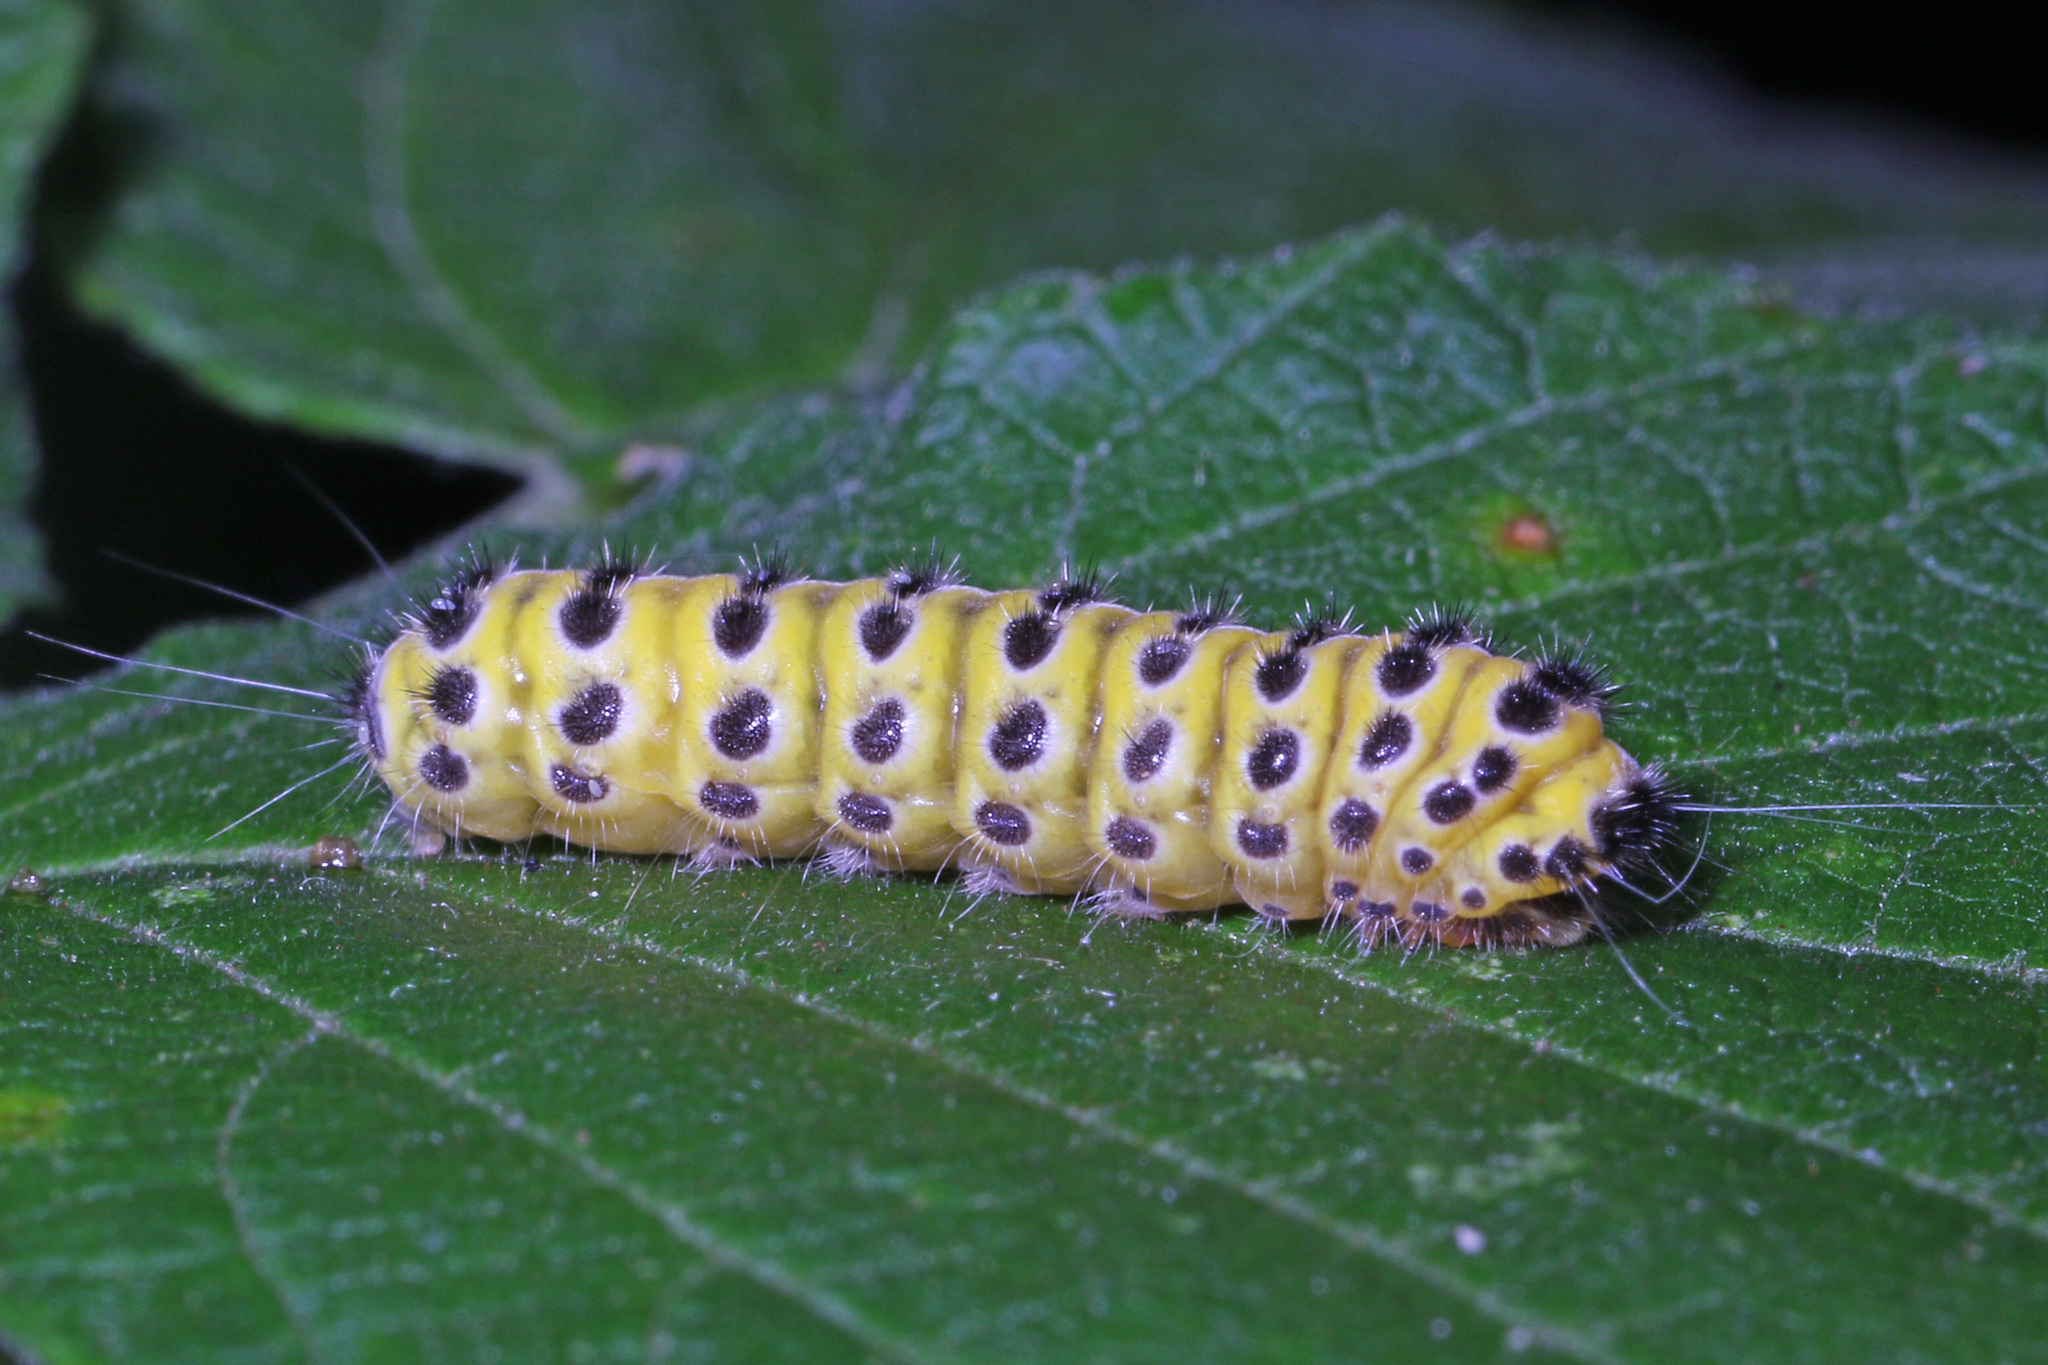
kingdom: Animalia
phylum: Arthropoda
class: Insecta
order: Lepidoptera
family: Zygaenidae
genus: Harrisina
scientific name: Harrisina americana
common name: Grapeleaf skeletonizer moth
